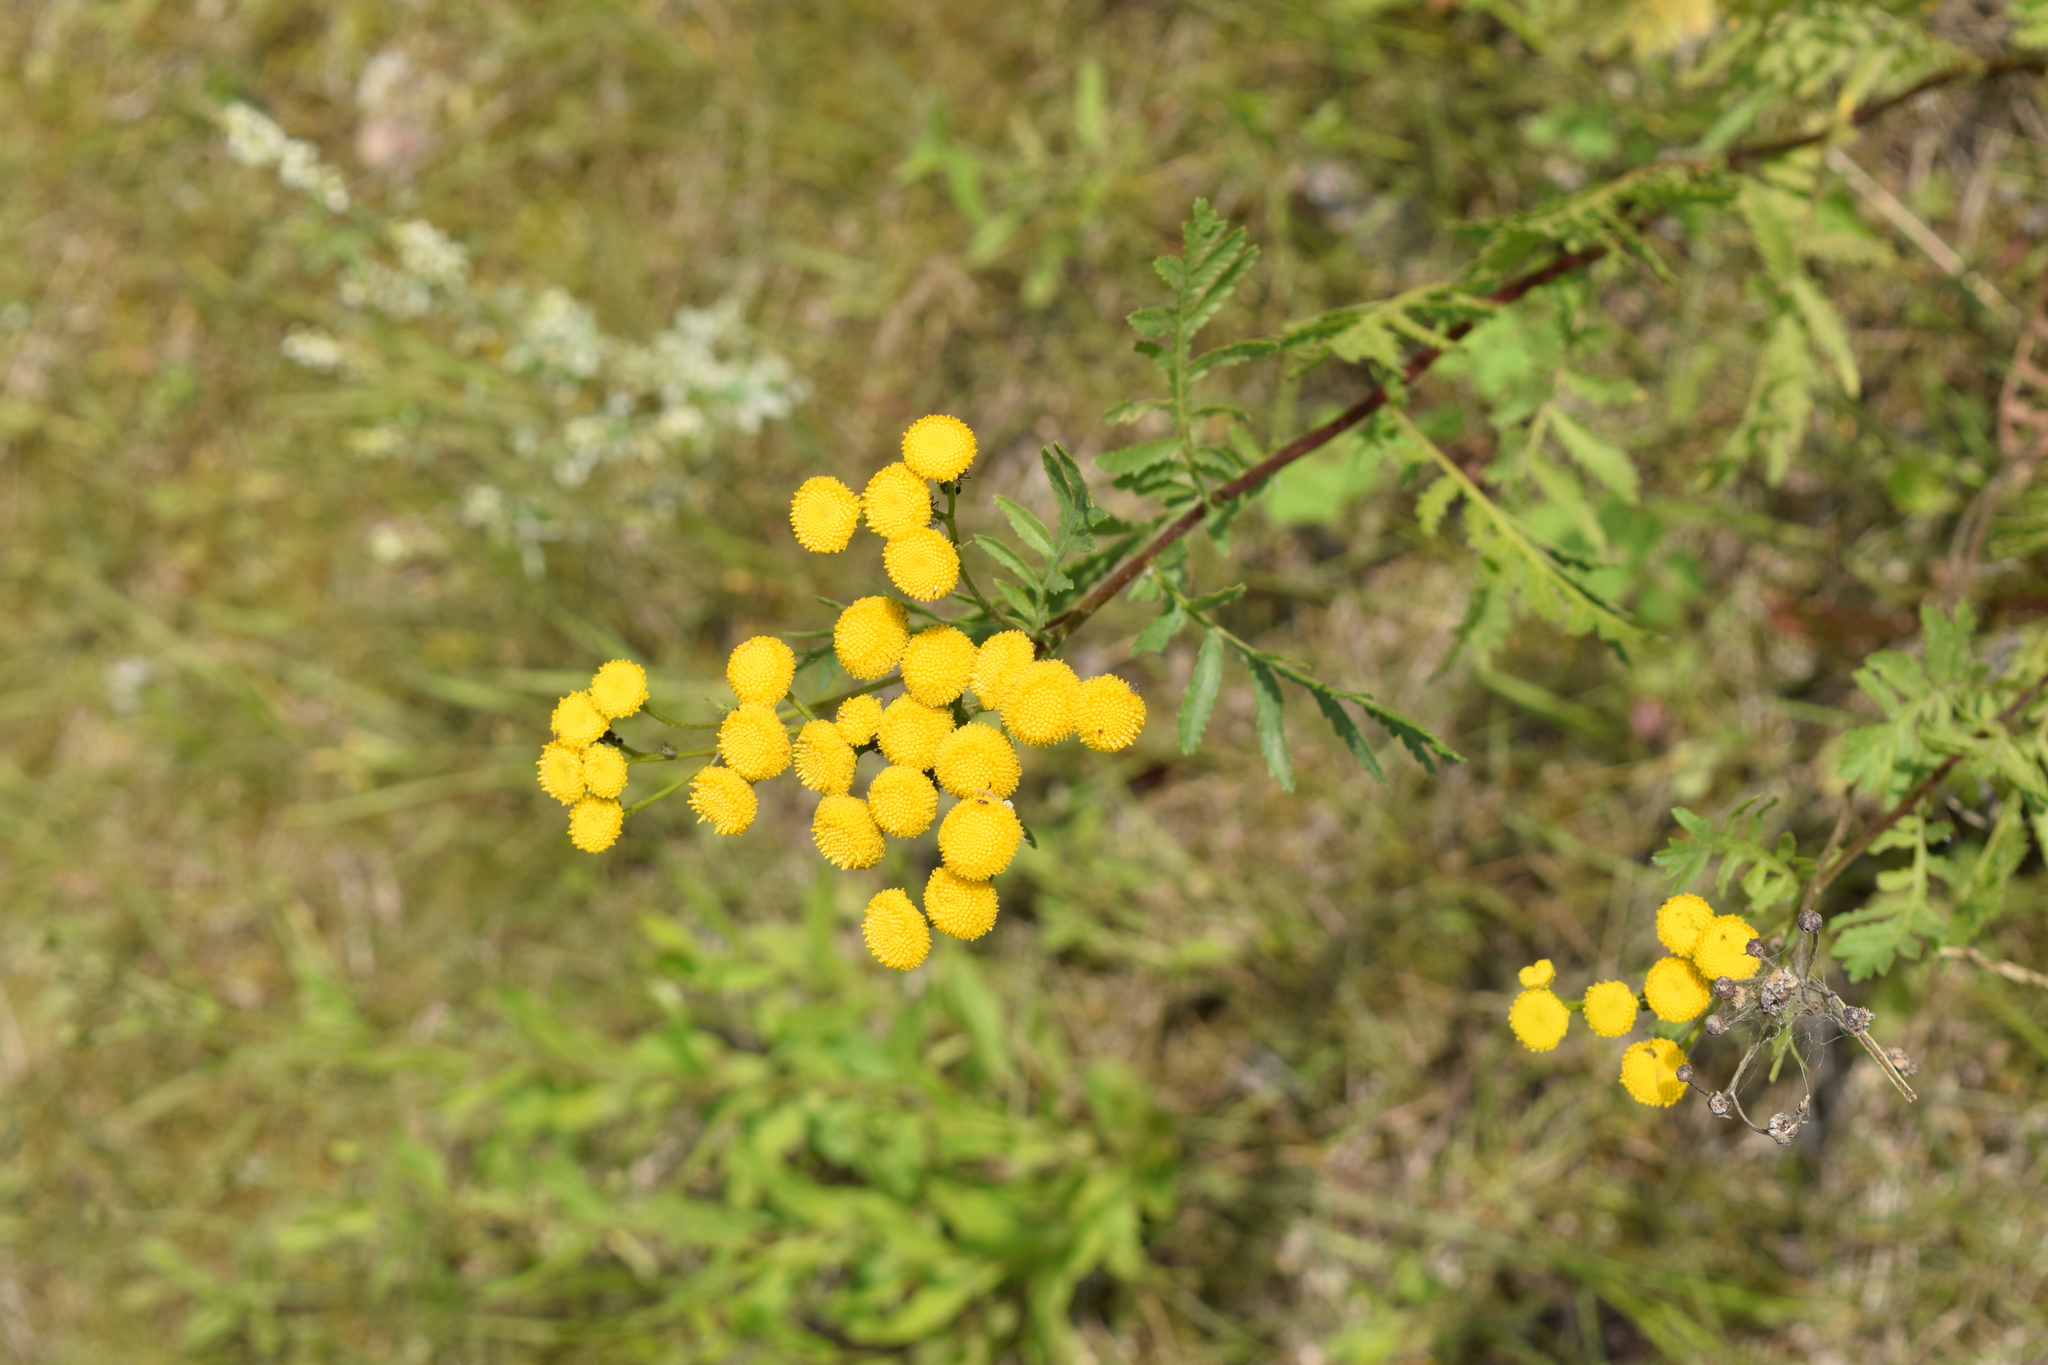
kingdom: Plantae
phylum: Tracheophyta
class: Magnoliopsida
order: Asterales
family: Asteraceae
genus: Tanacetum
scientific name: Tanacetum vulgare
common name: Common tansy
